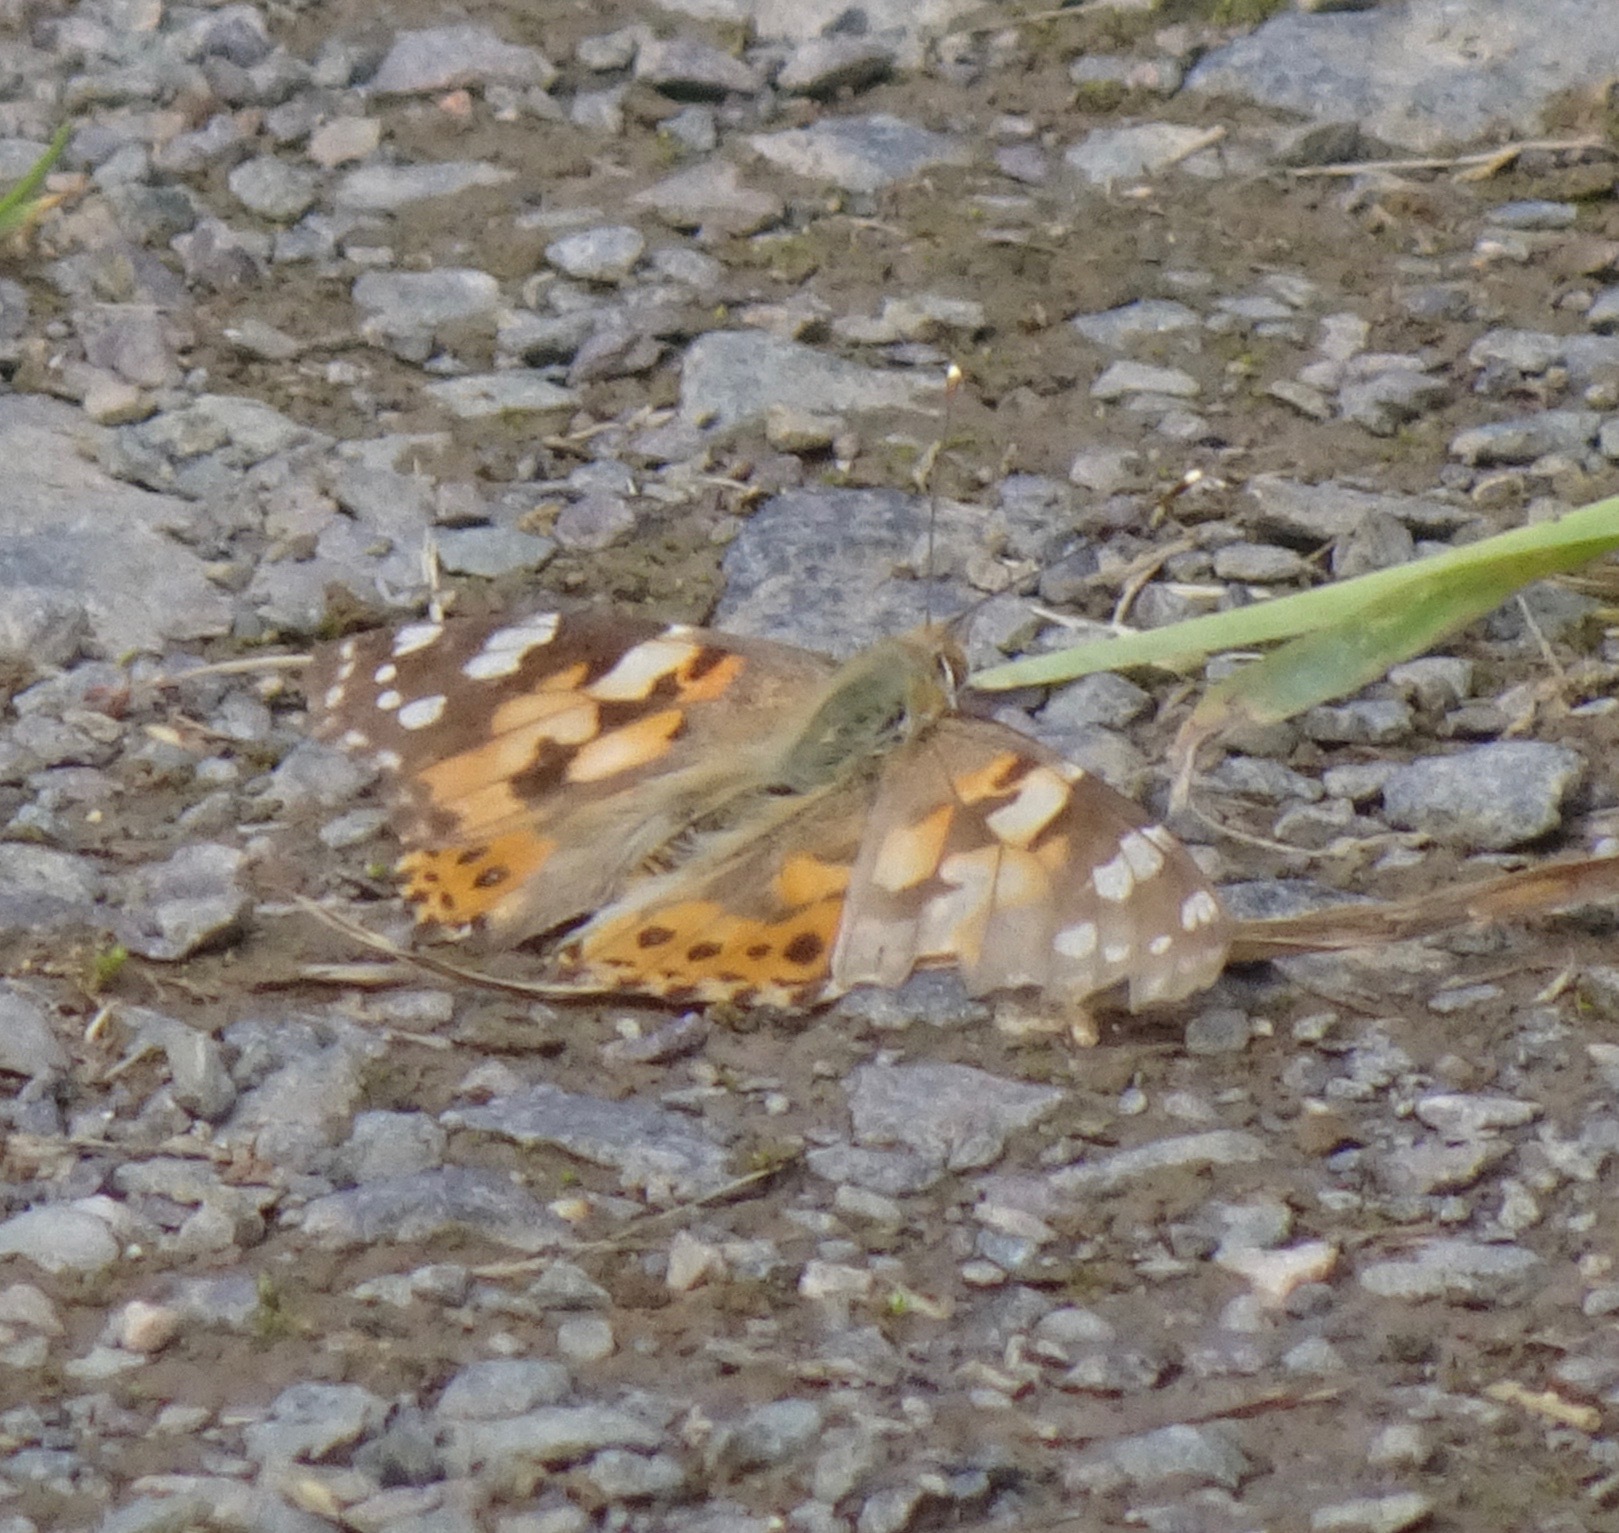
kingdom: Animalia
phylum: Arthropoda
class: Insecta
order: Lepidoptera
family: Nymphalidae
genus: Vanessa
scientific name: Vanessa cardui
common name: Painted lady
